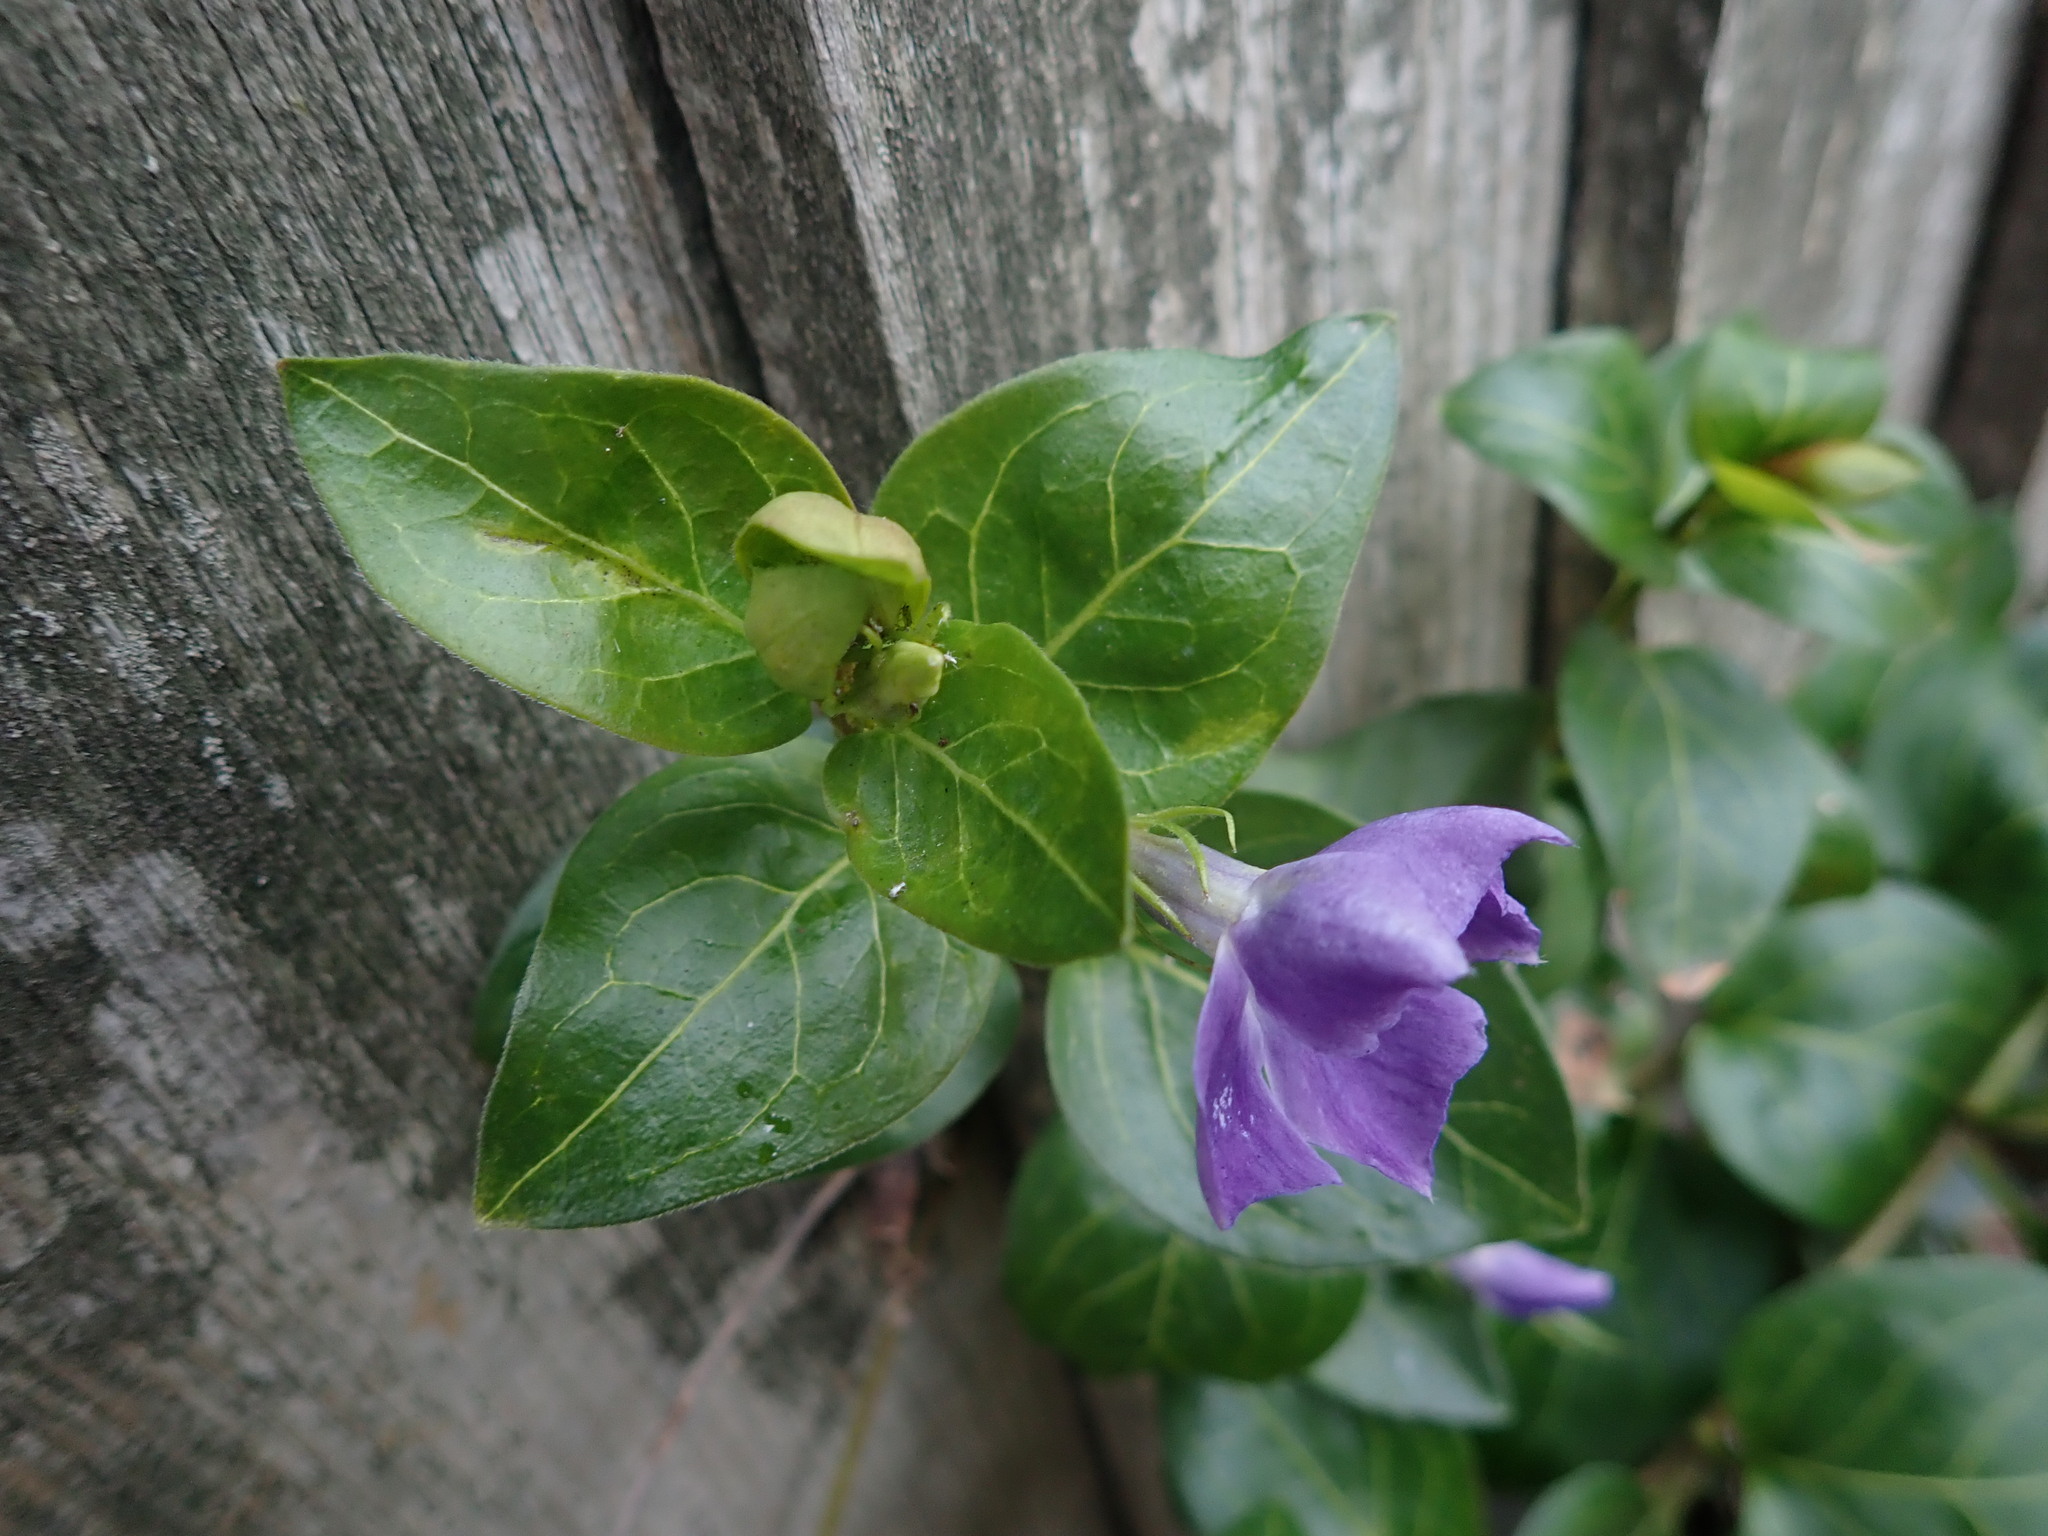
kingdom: Plantae
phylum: Tracheophyta
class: Magnoliopsida
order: Gentianales
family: Apocynaceae
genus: Vinca
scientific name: Vinca major
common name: Greater periwinkle
